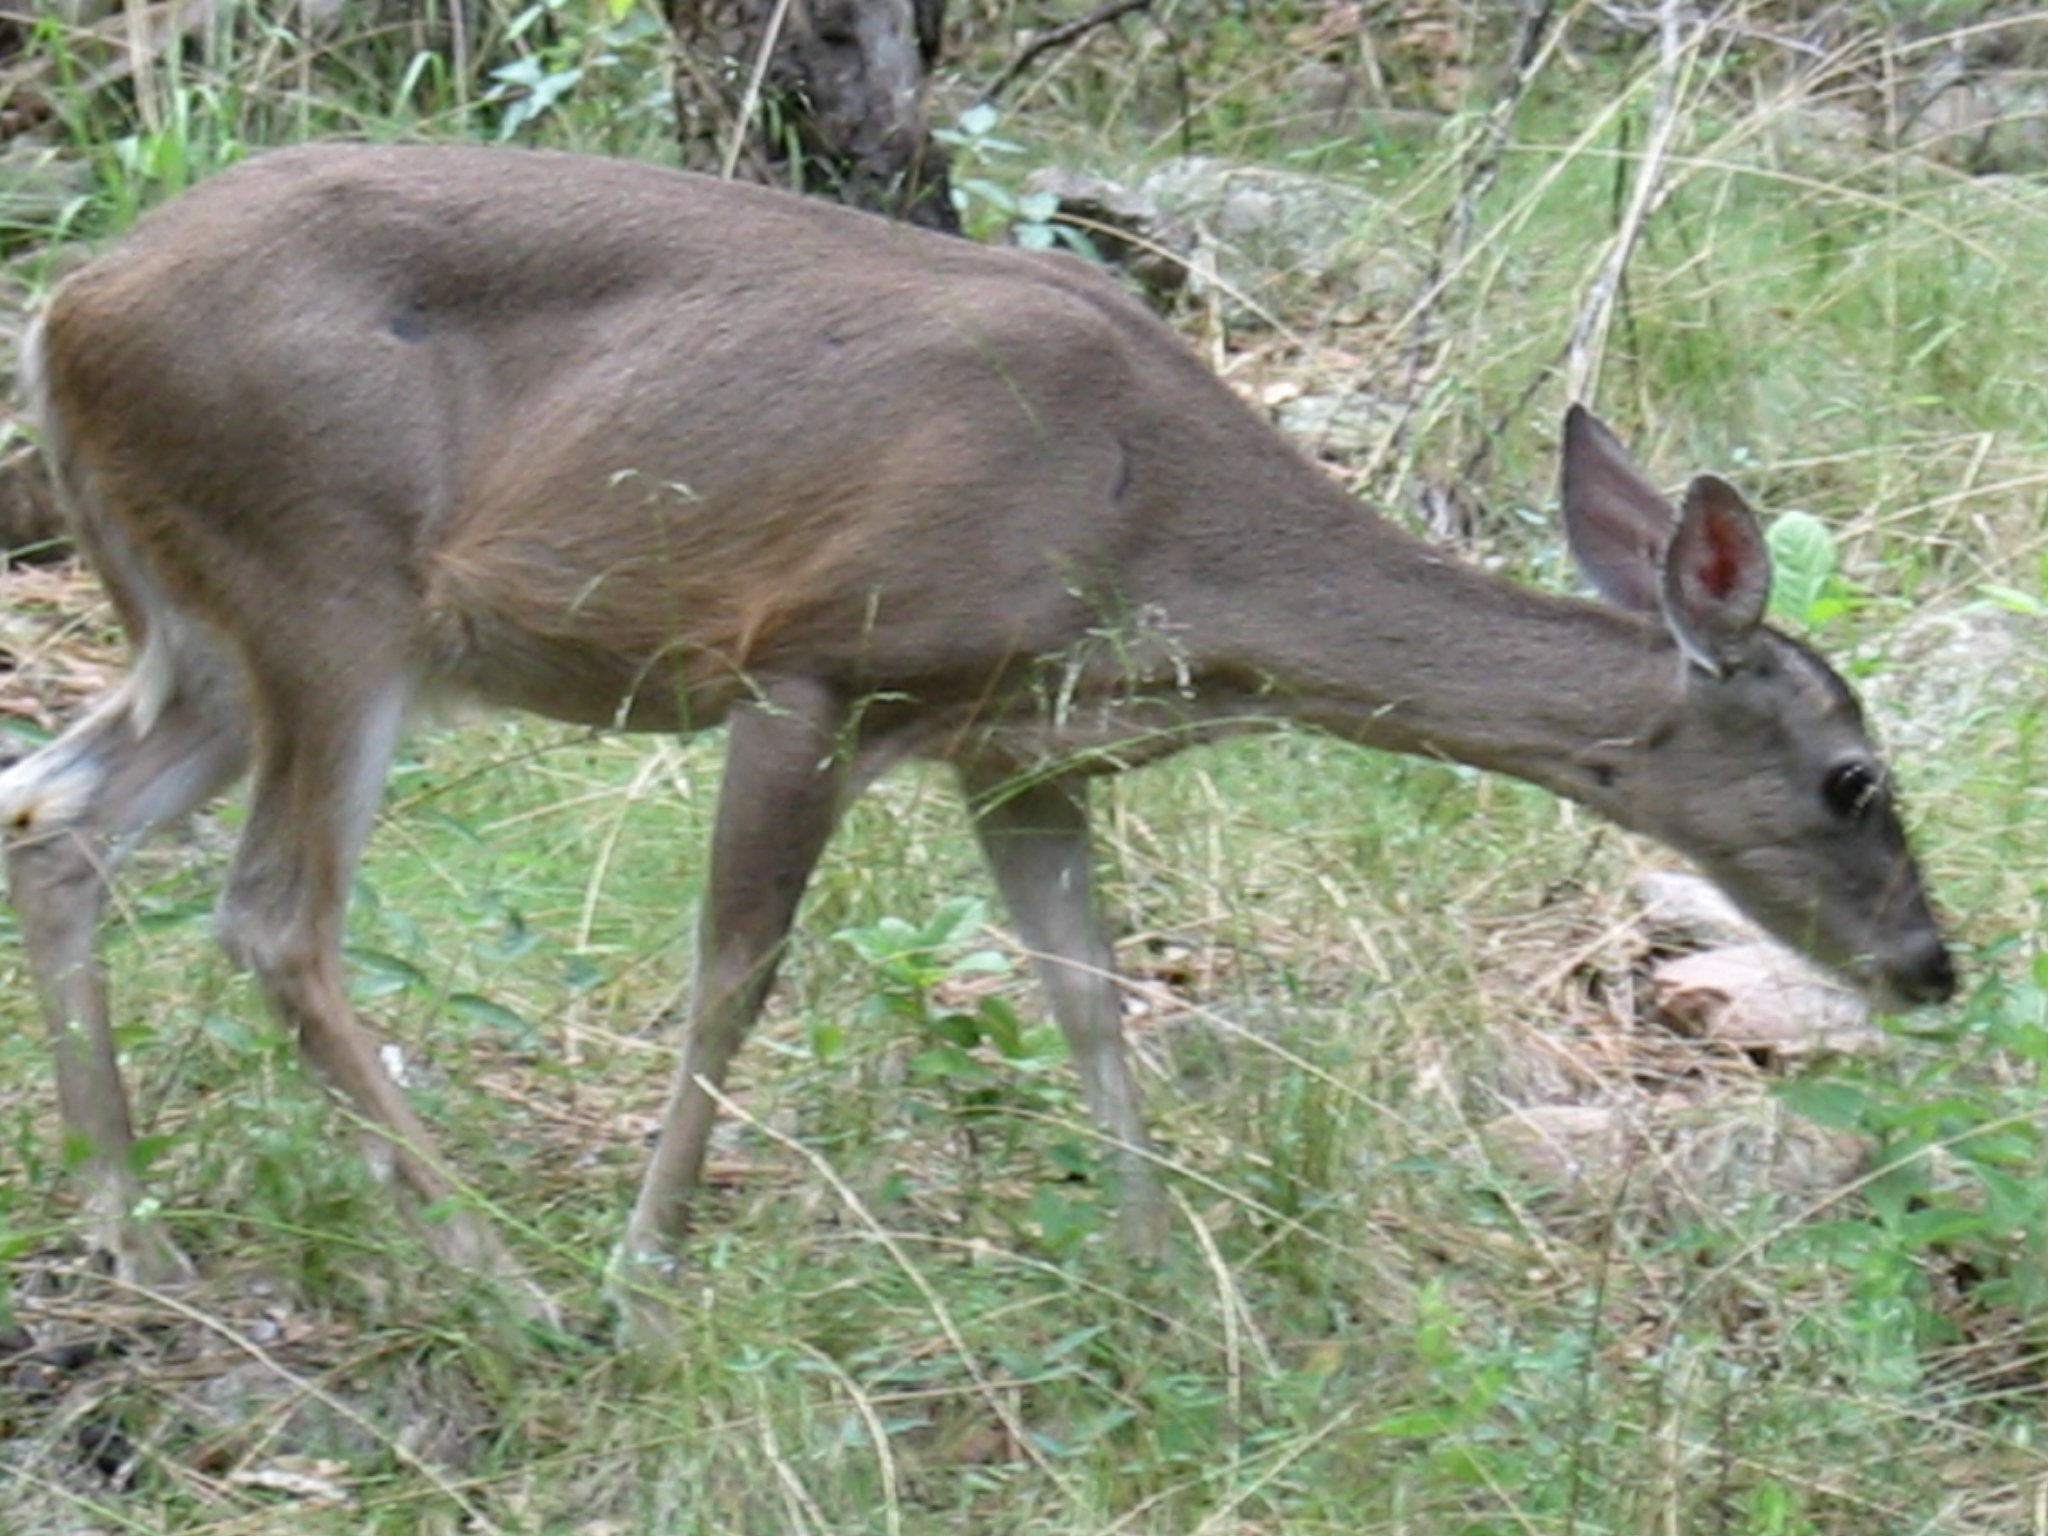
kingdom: Animalia
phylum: Chordata
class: Mammalia
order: Artiodactyla
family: Cervidae
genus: Odocoileus
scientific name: Odocoileus virginianus
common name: White-tailed deer
